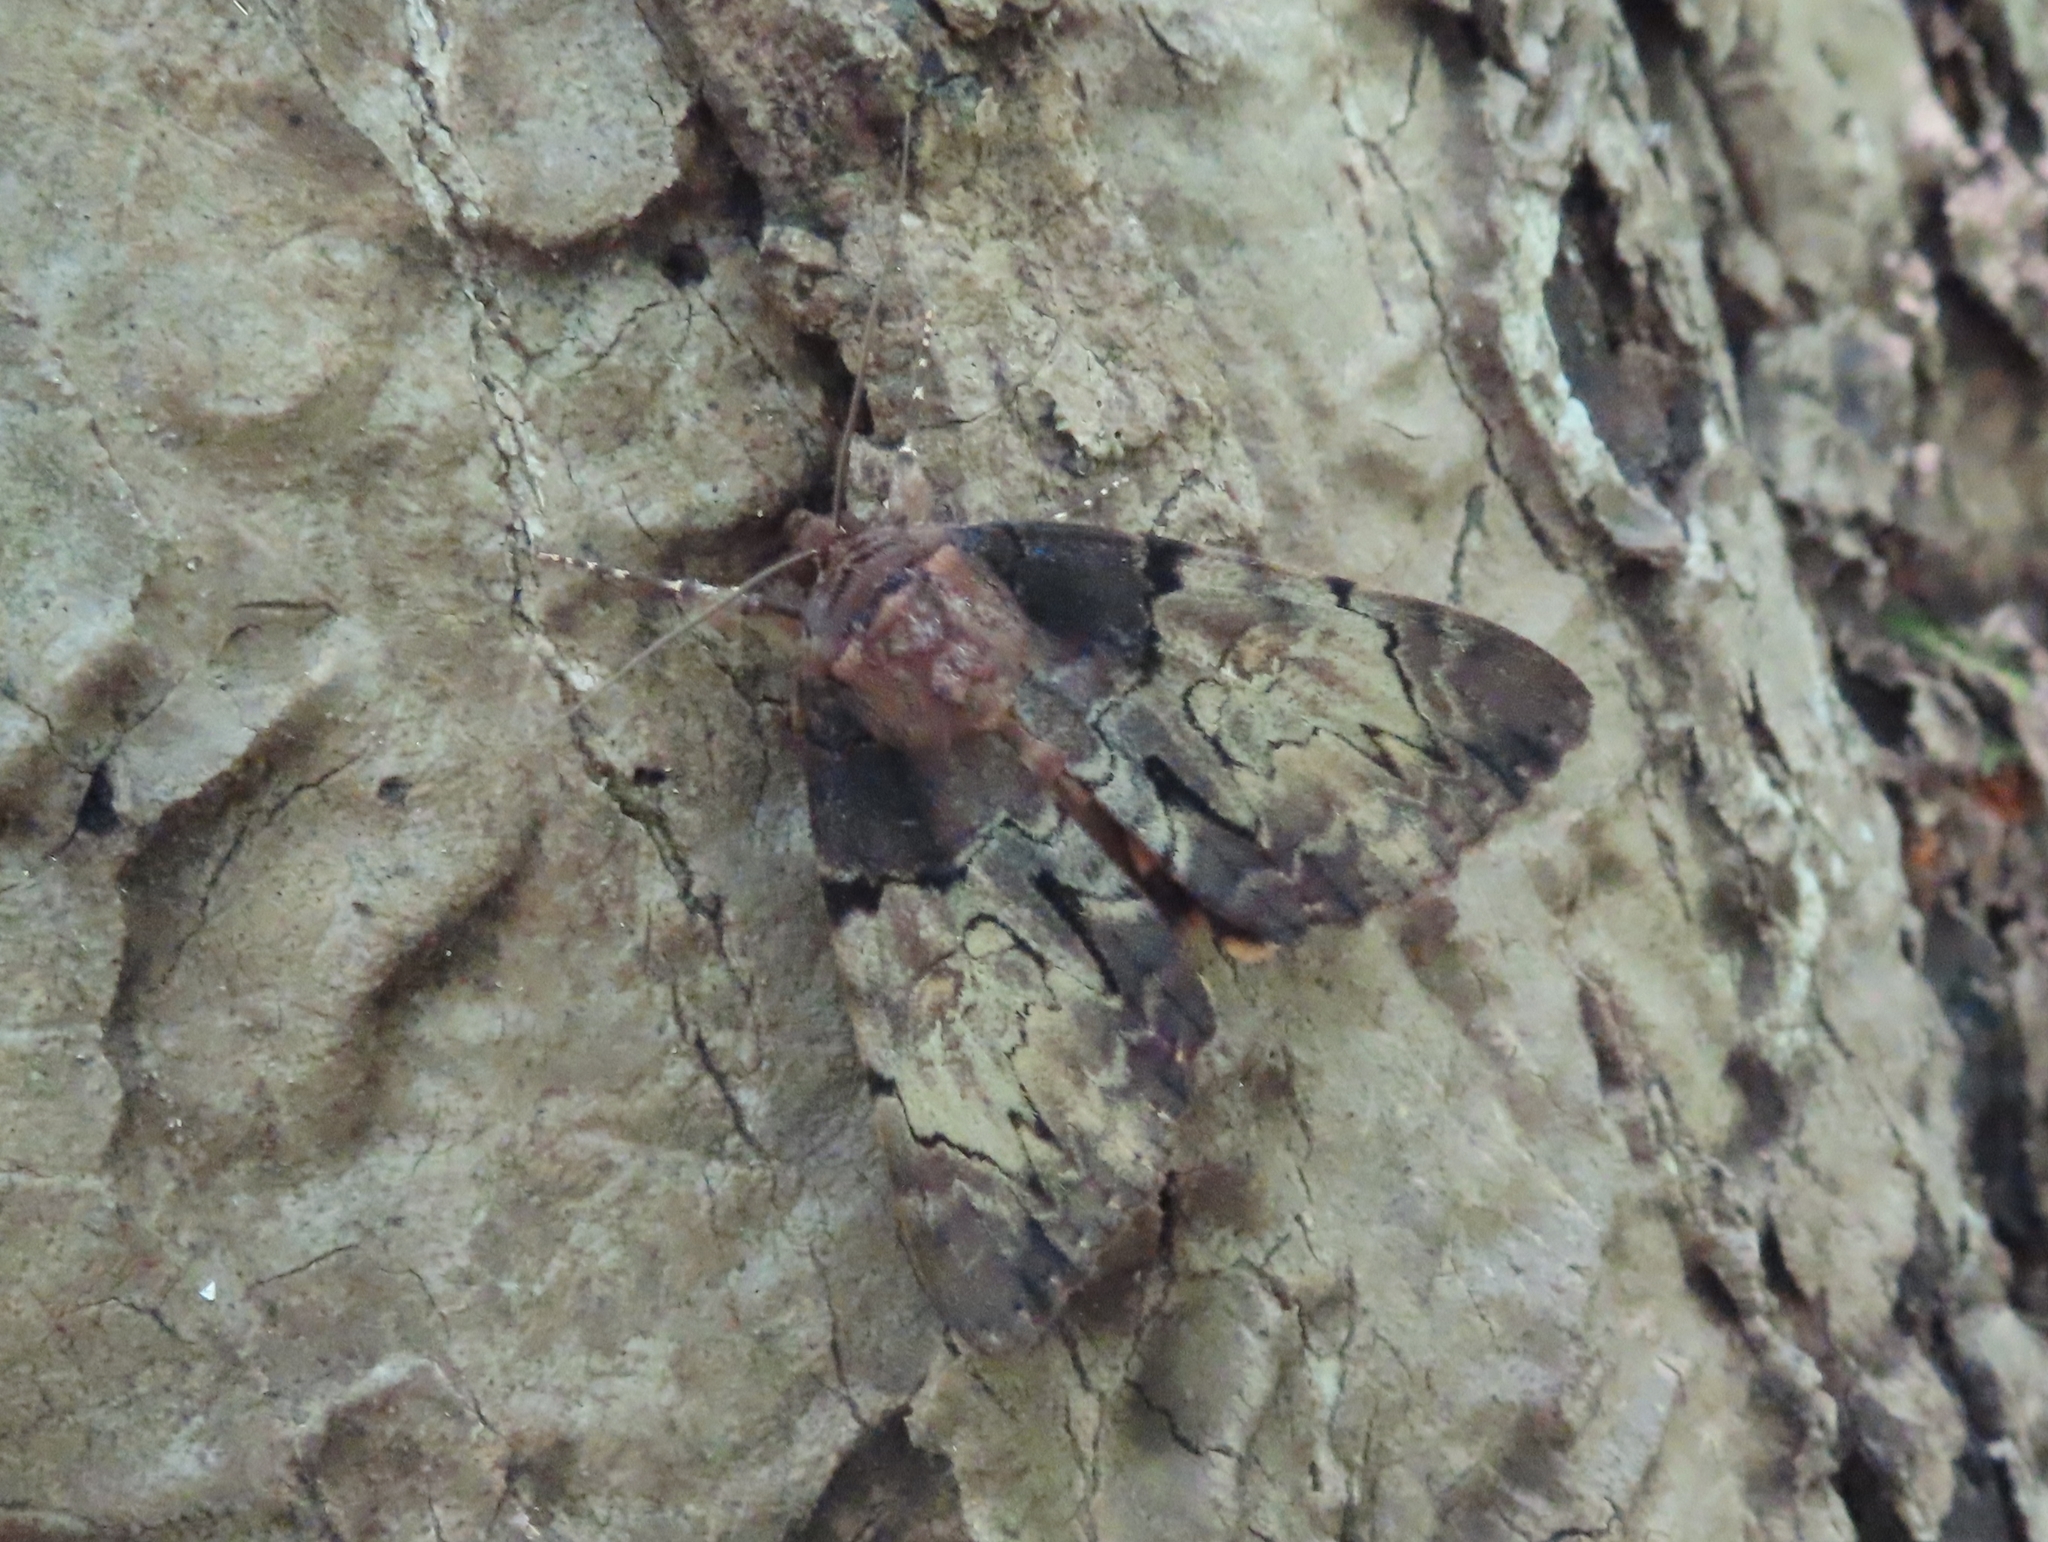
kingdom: Animalia
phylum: Arthropoda
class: Insecta
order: Lepidoptera
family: Erebidae
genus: Catocala
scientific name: Catocala nebulosa
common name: Clouded underwing
